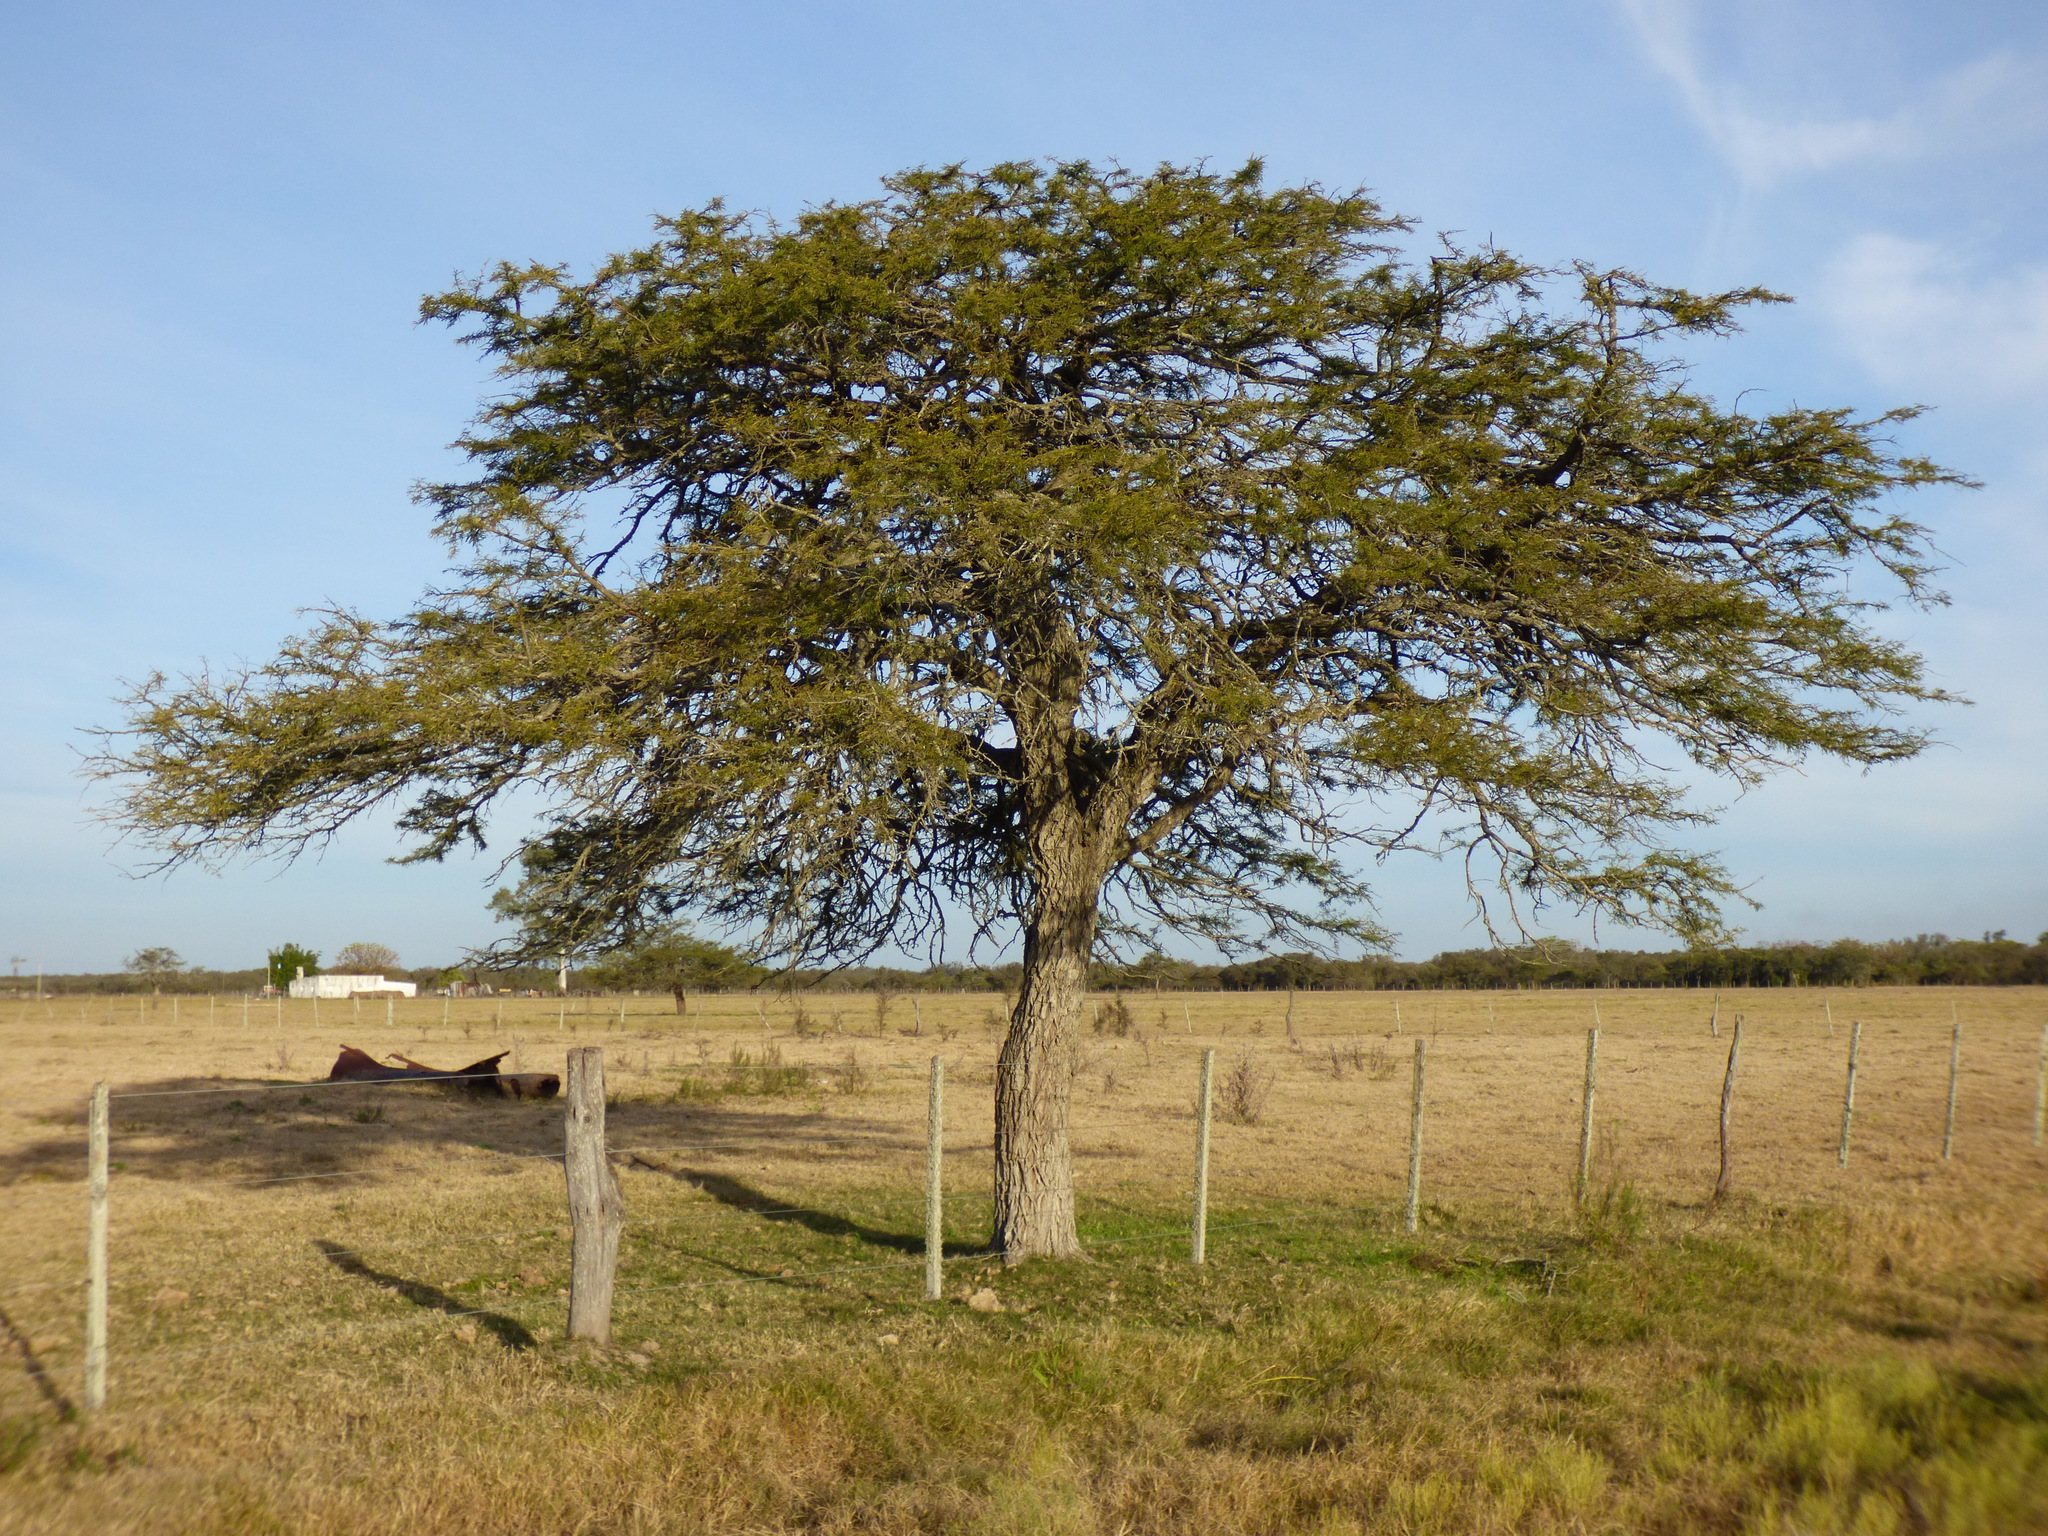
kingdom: Plantae
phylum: Tracheophyta
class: Magnoliopsida
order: Fabales
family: Fabaceae
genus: Prosopis
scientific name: Prosopis affinis
